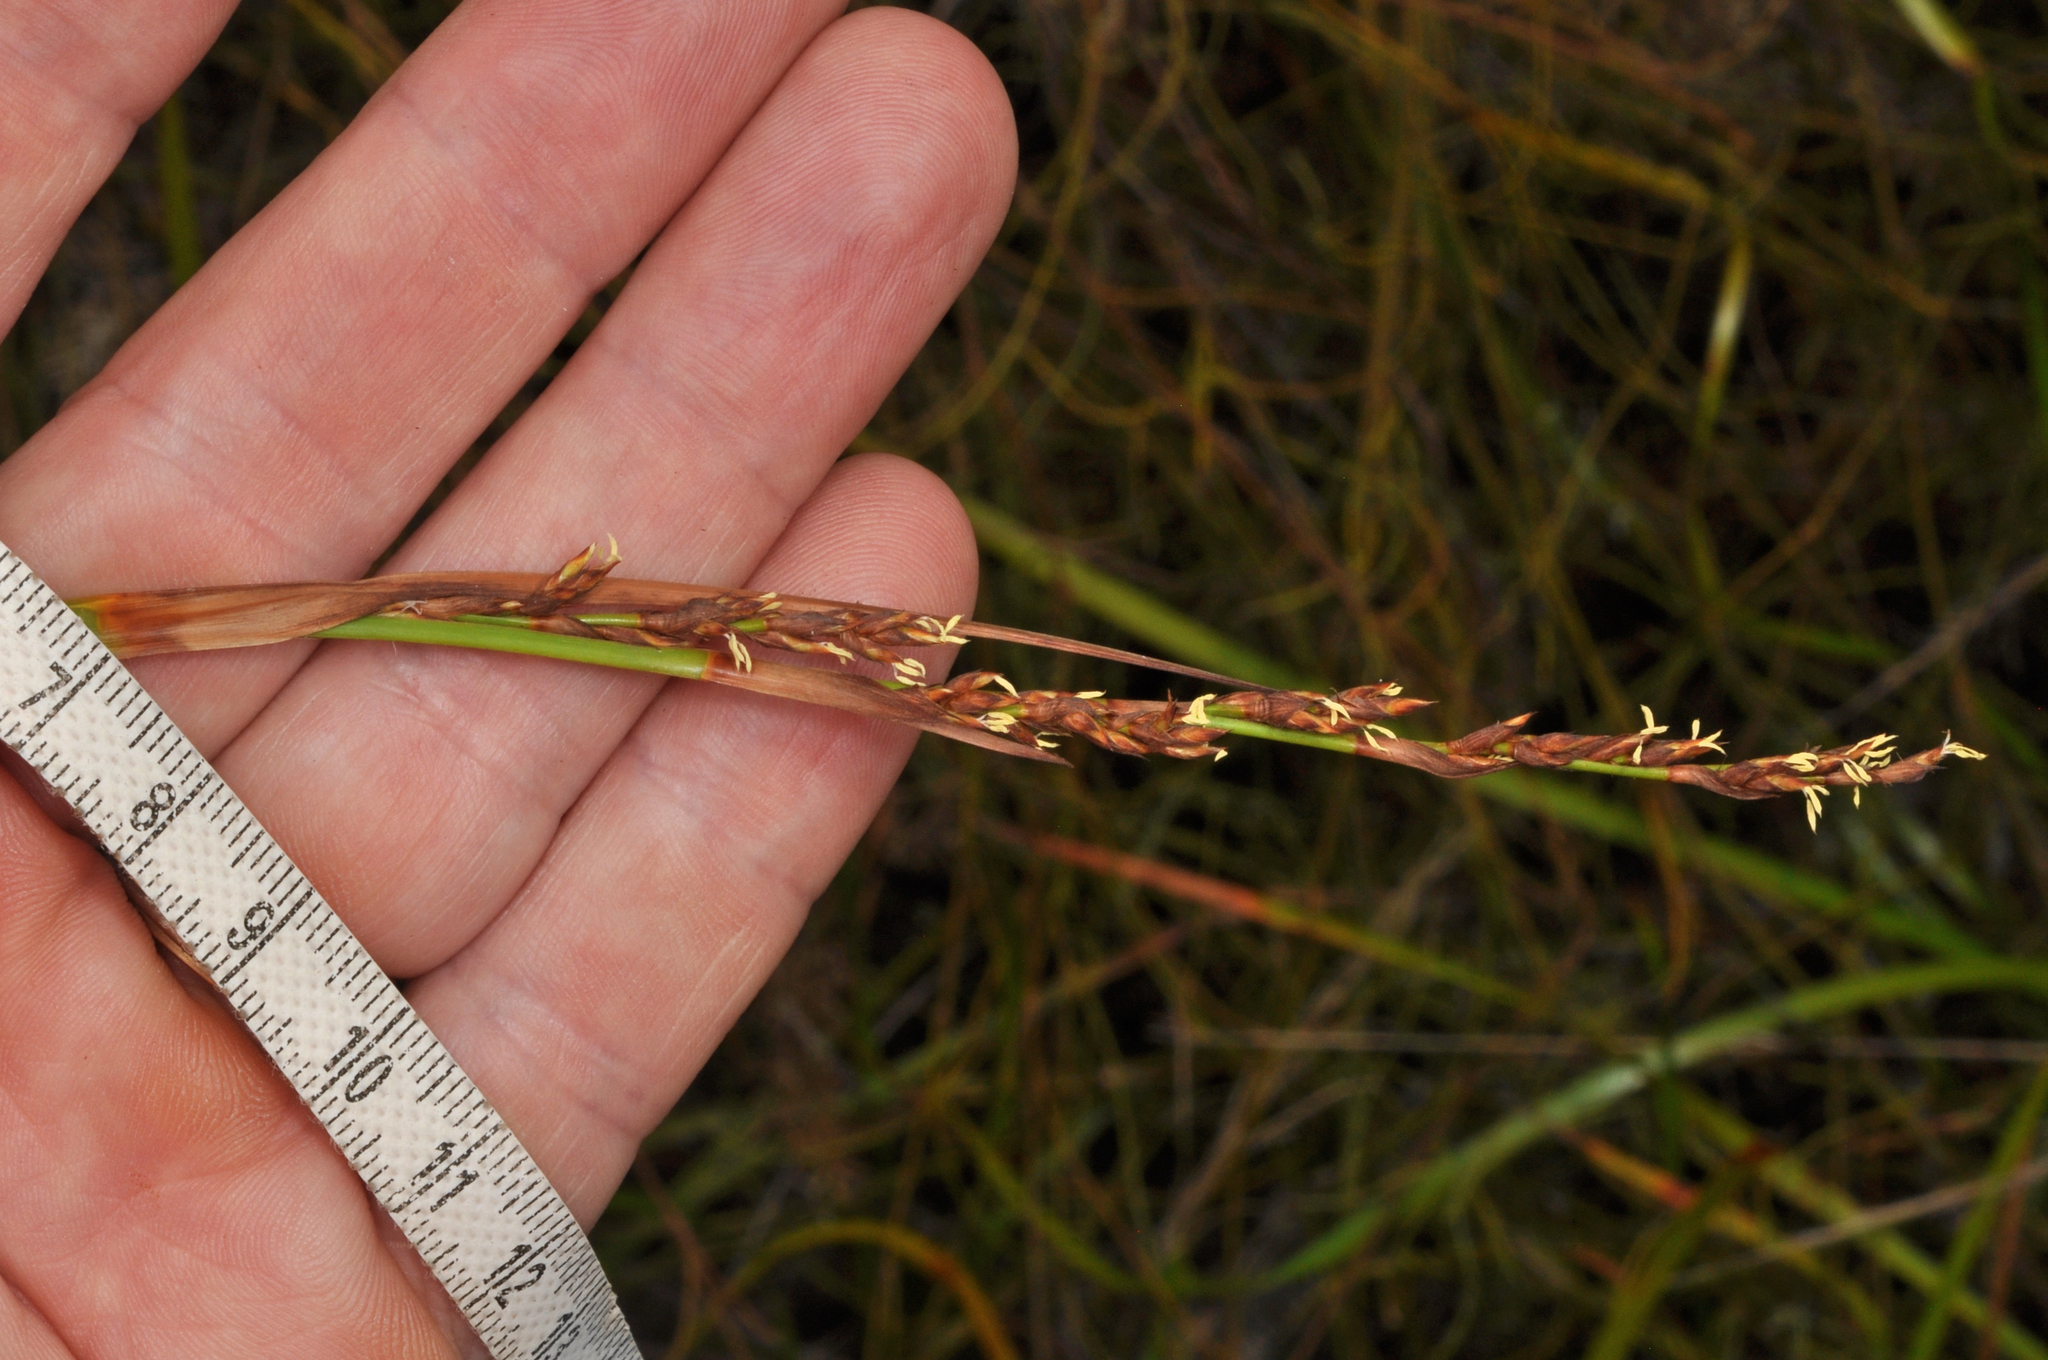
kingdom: Plantae
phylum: Tracheophyta
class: Liliopsida
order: Poales
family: Cyperaceae
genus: Lepidosperma
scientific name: Lepidosperma laterale
